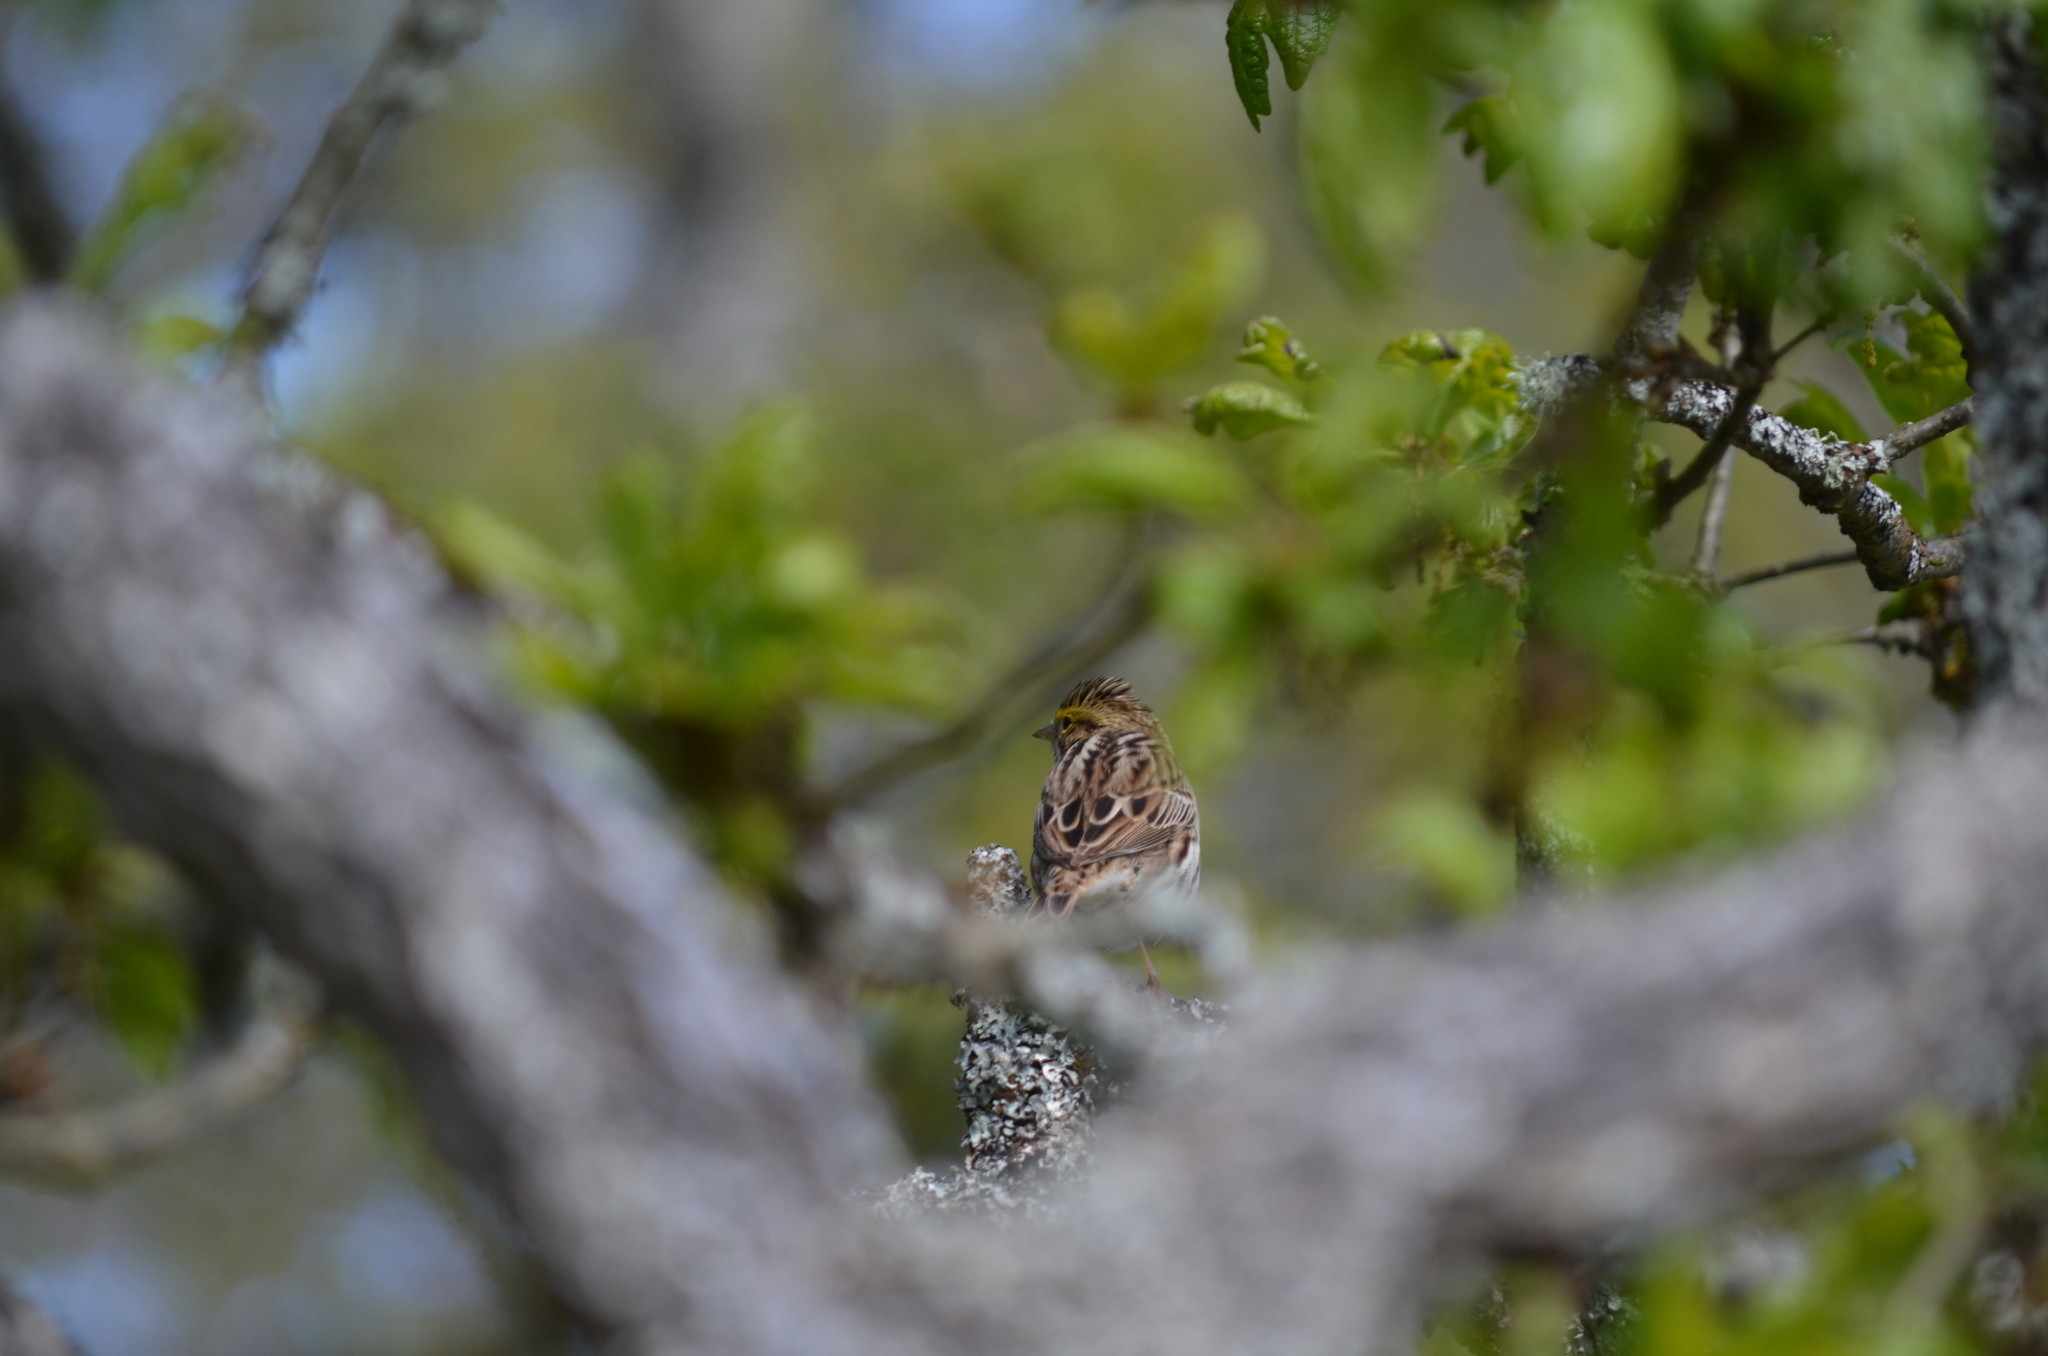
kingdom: Animalia
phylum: Chordata
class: Aves
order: Passeriformes
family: Passerellidae
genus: Passerculus
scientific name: Passerculus sandwichensis
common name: Savannah sparrow
